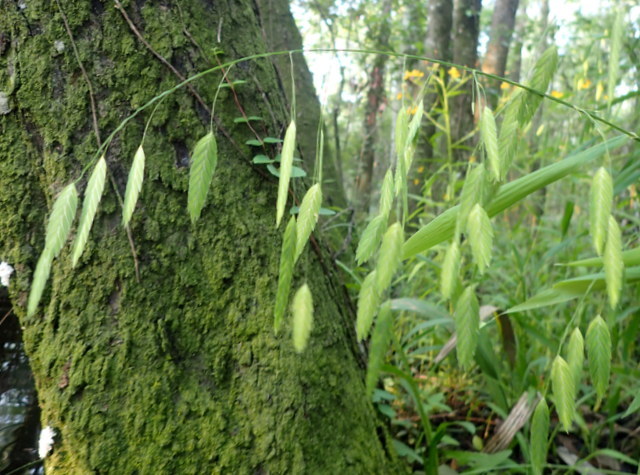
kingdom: Plantae
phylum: Tracheophyta
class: Liliopsida
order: Poales
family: Poaceae
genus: Chasmanthium
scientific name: Chasmanthium latifolium
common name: Broad-leaved chasmanthium
